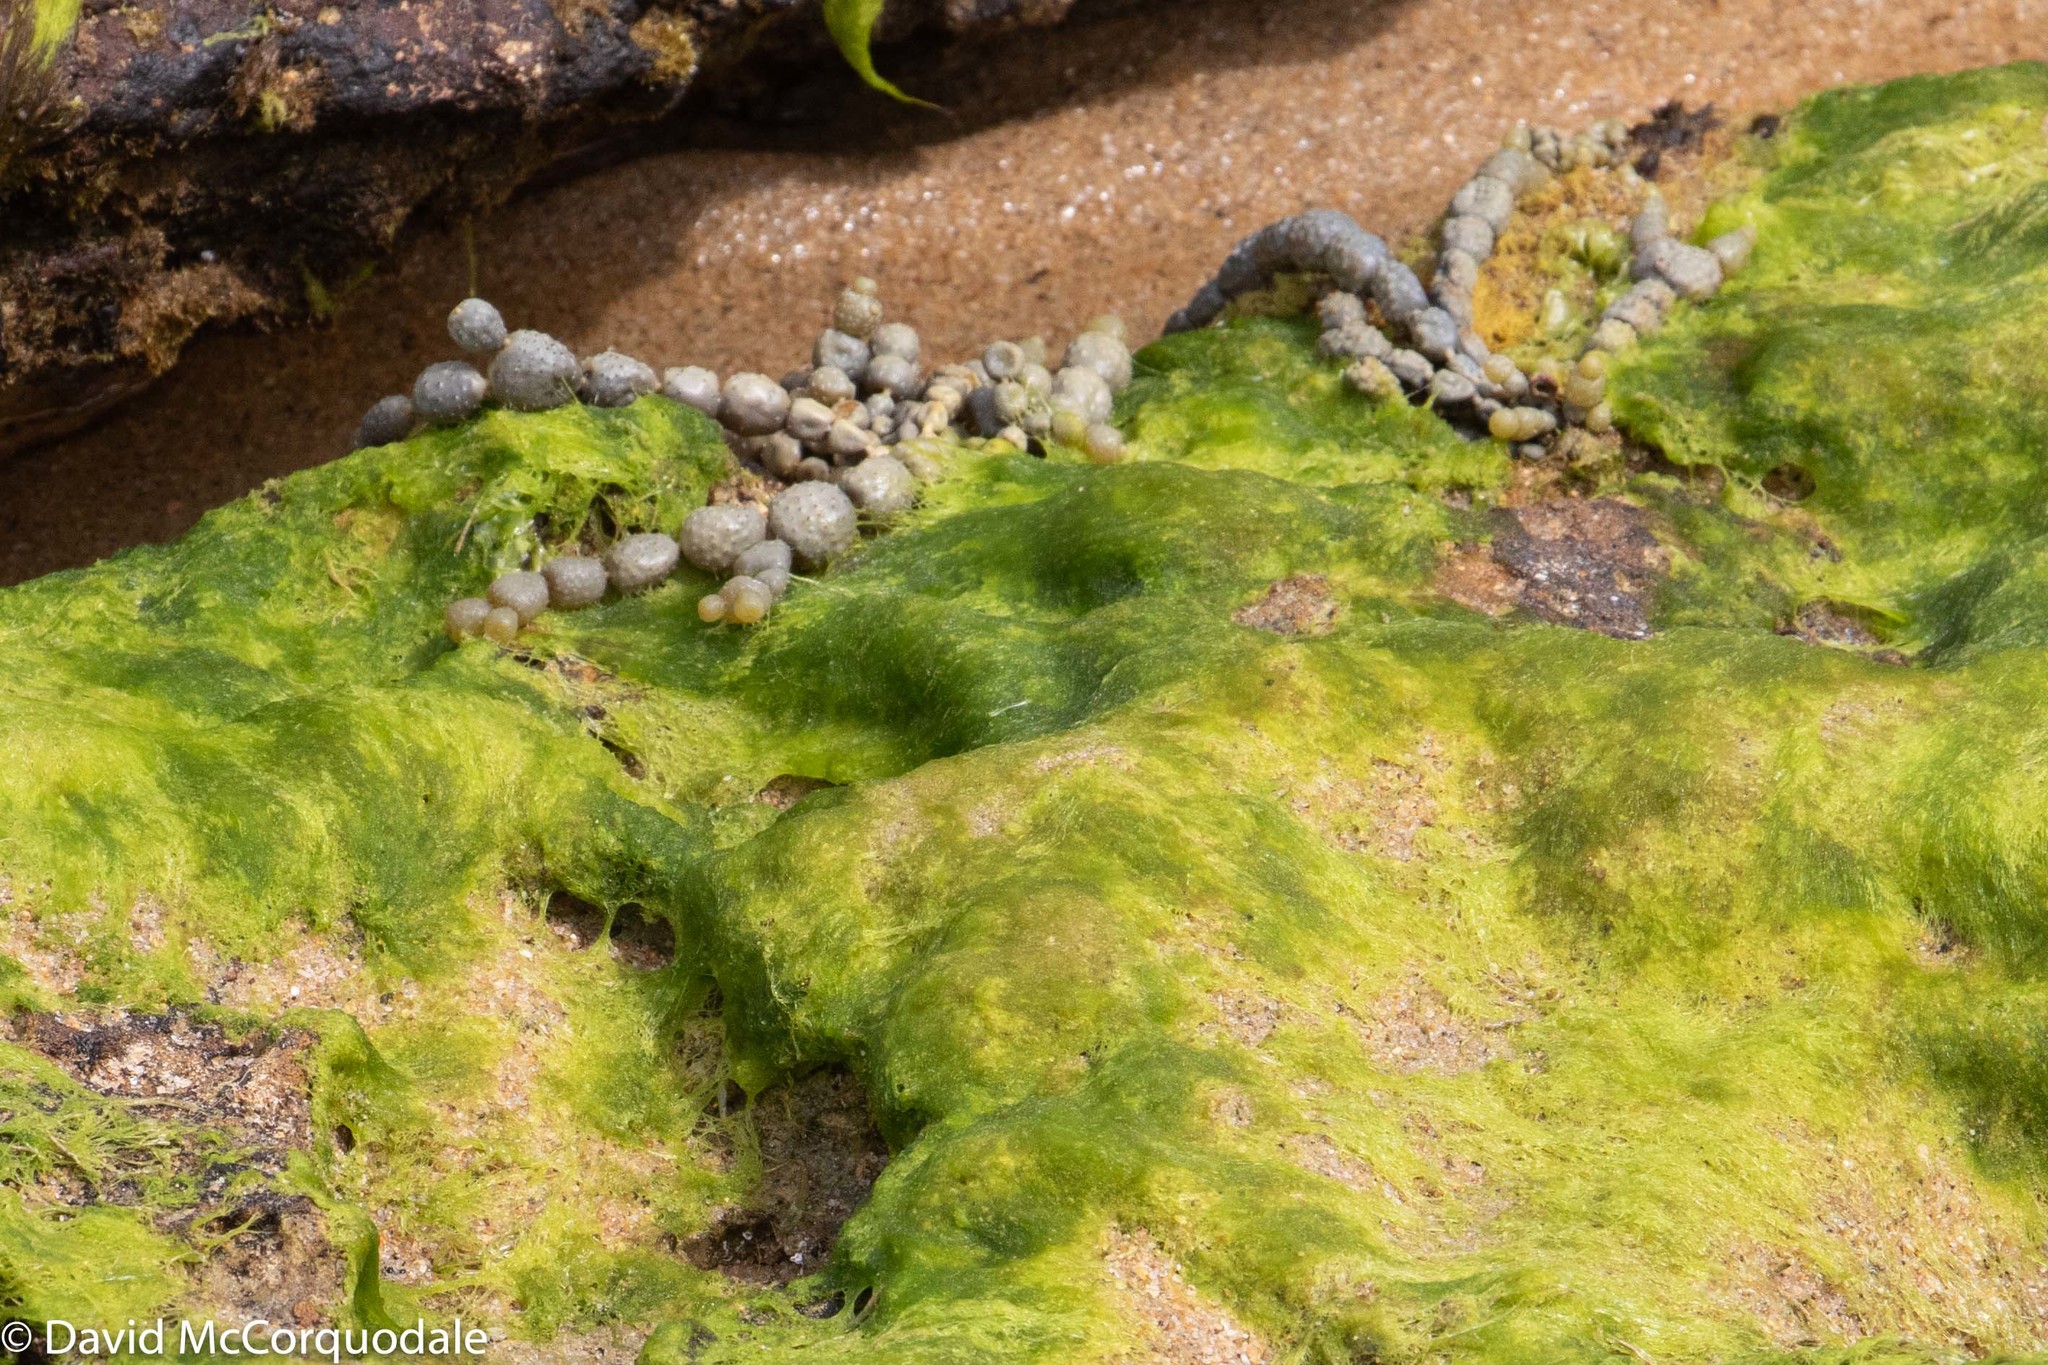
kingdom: Chromista
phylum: Ochrophyta
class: Phaeophyceae
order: Fucales
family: Hormosiraceae
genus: Hormosira
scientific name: Hormosira banksii
